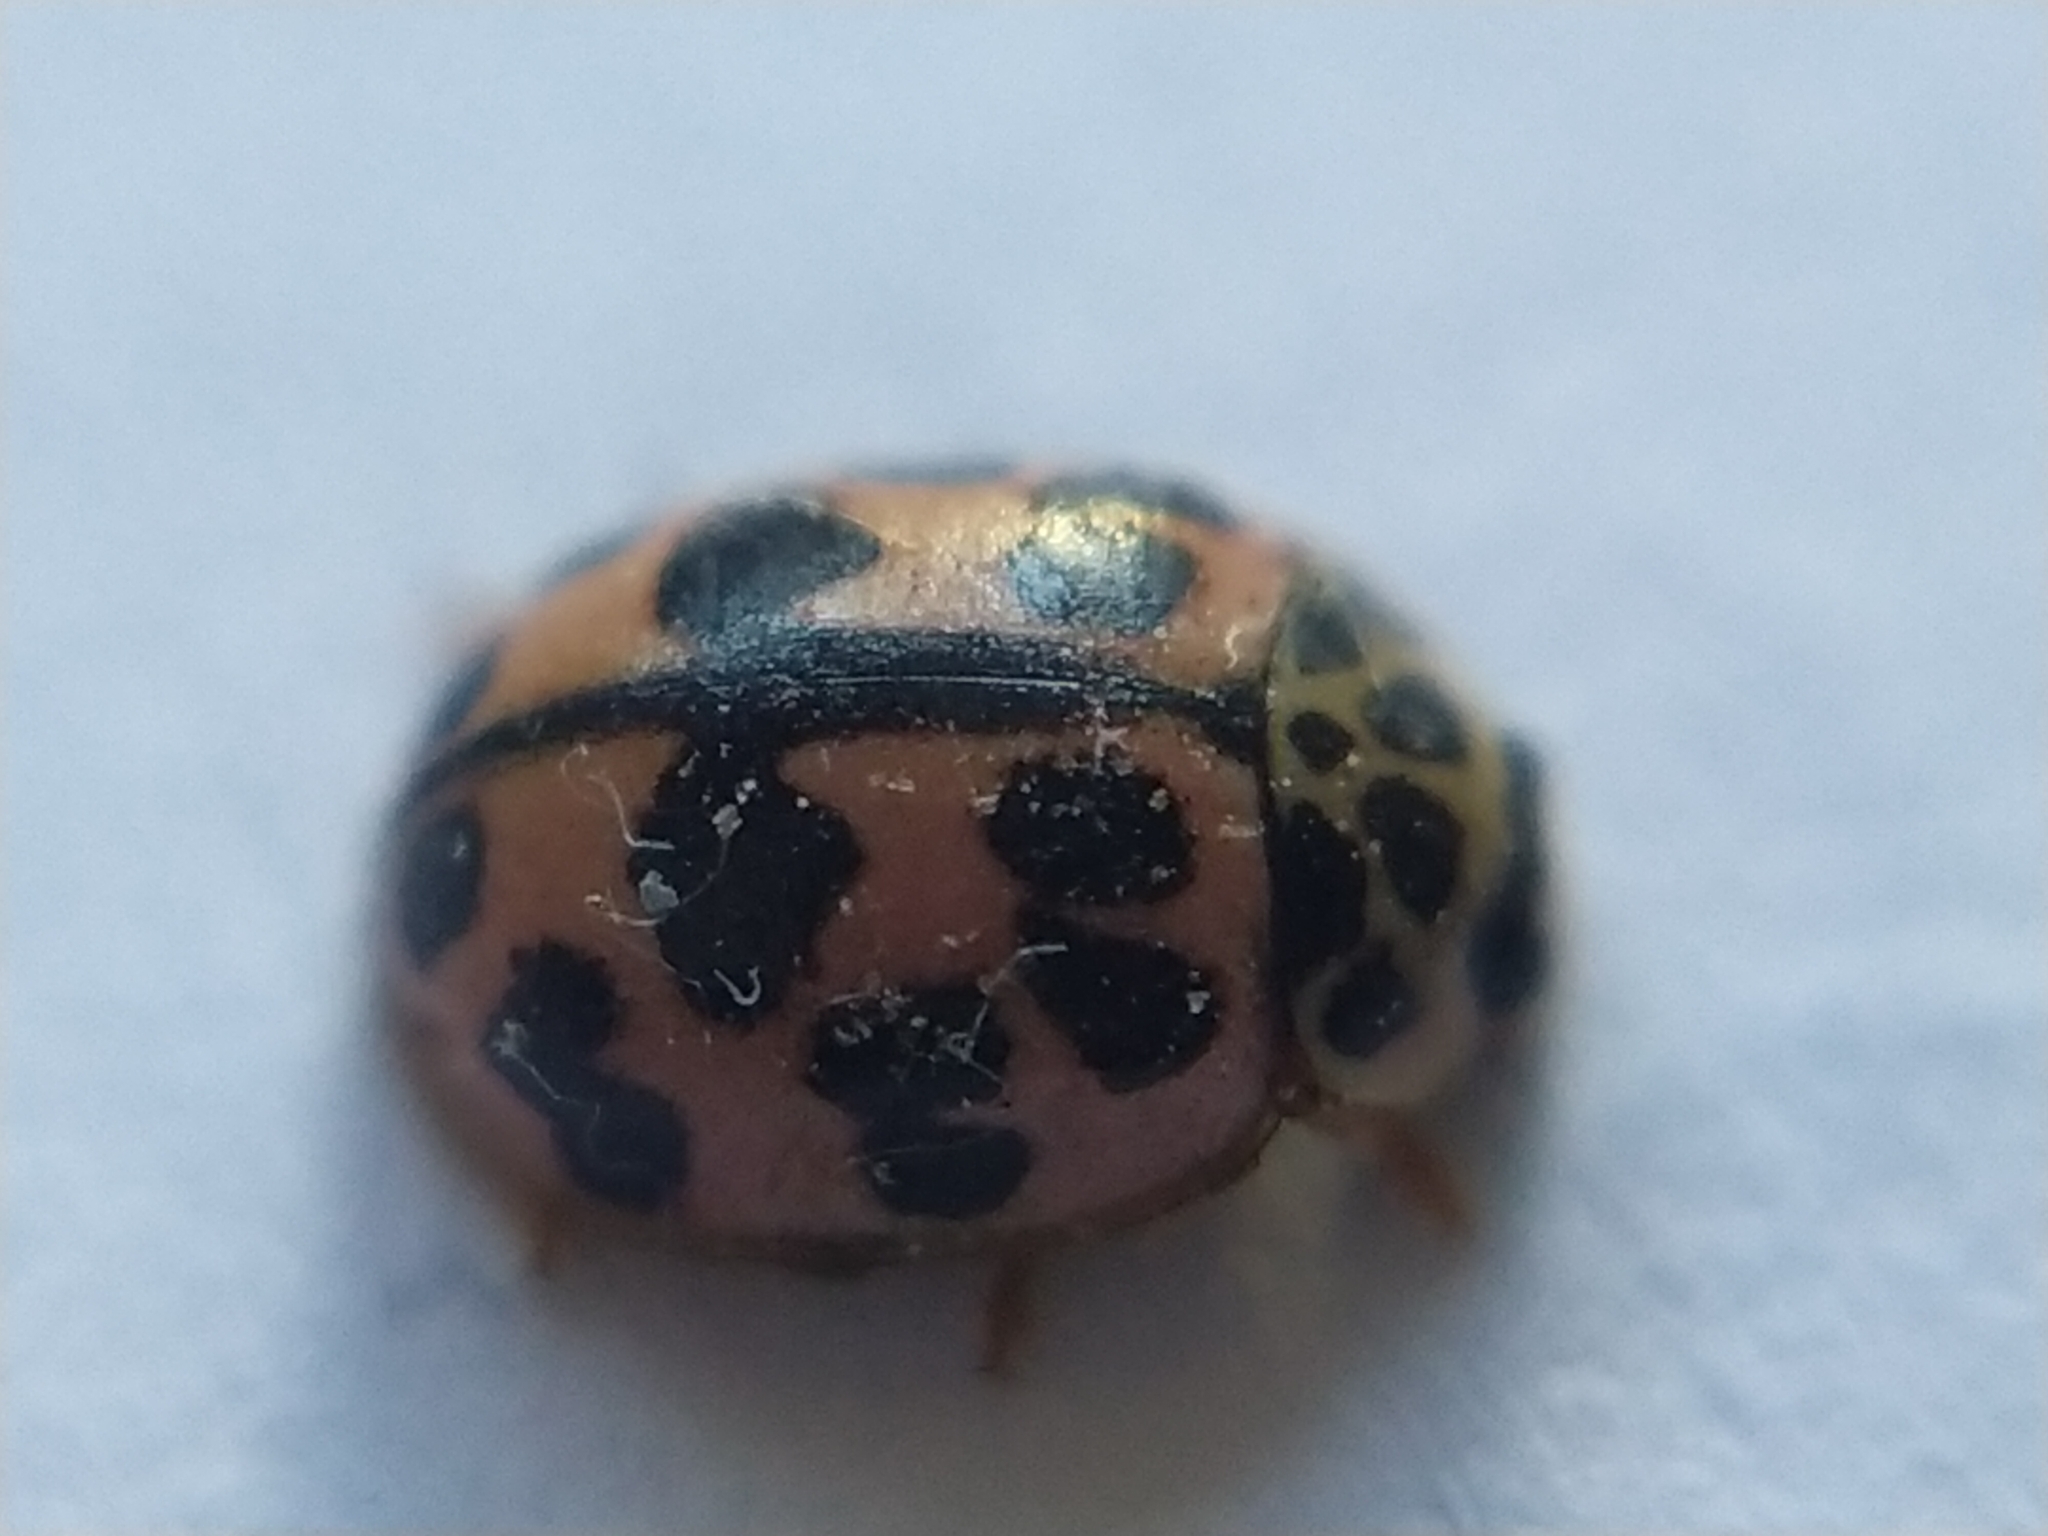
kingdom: Animalia
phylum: Arthropoda
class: Insecta
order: Coleoptera
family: Coccinellidae
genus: Oenopia
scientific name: Oenopia conglobata
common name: Ladybird beetle
